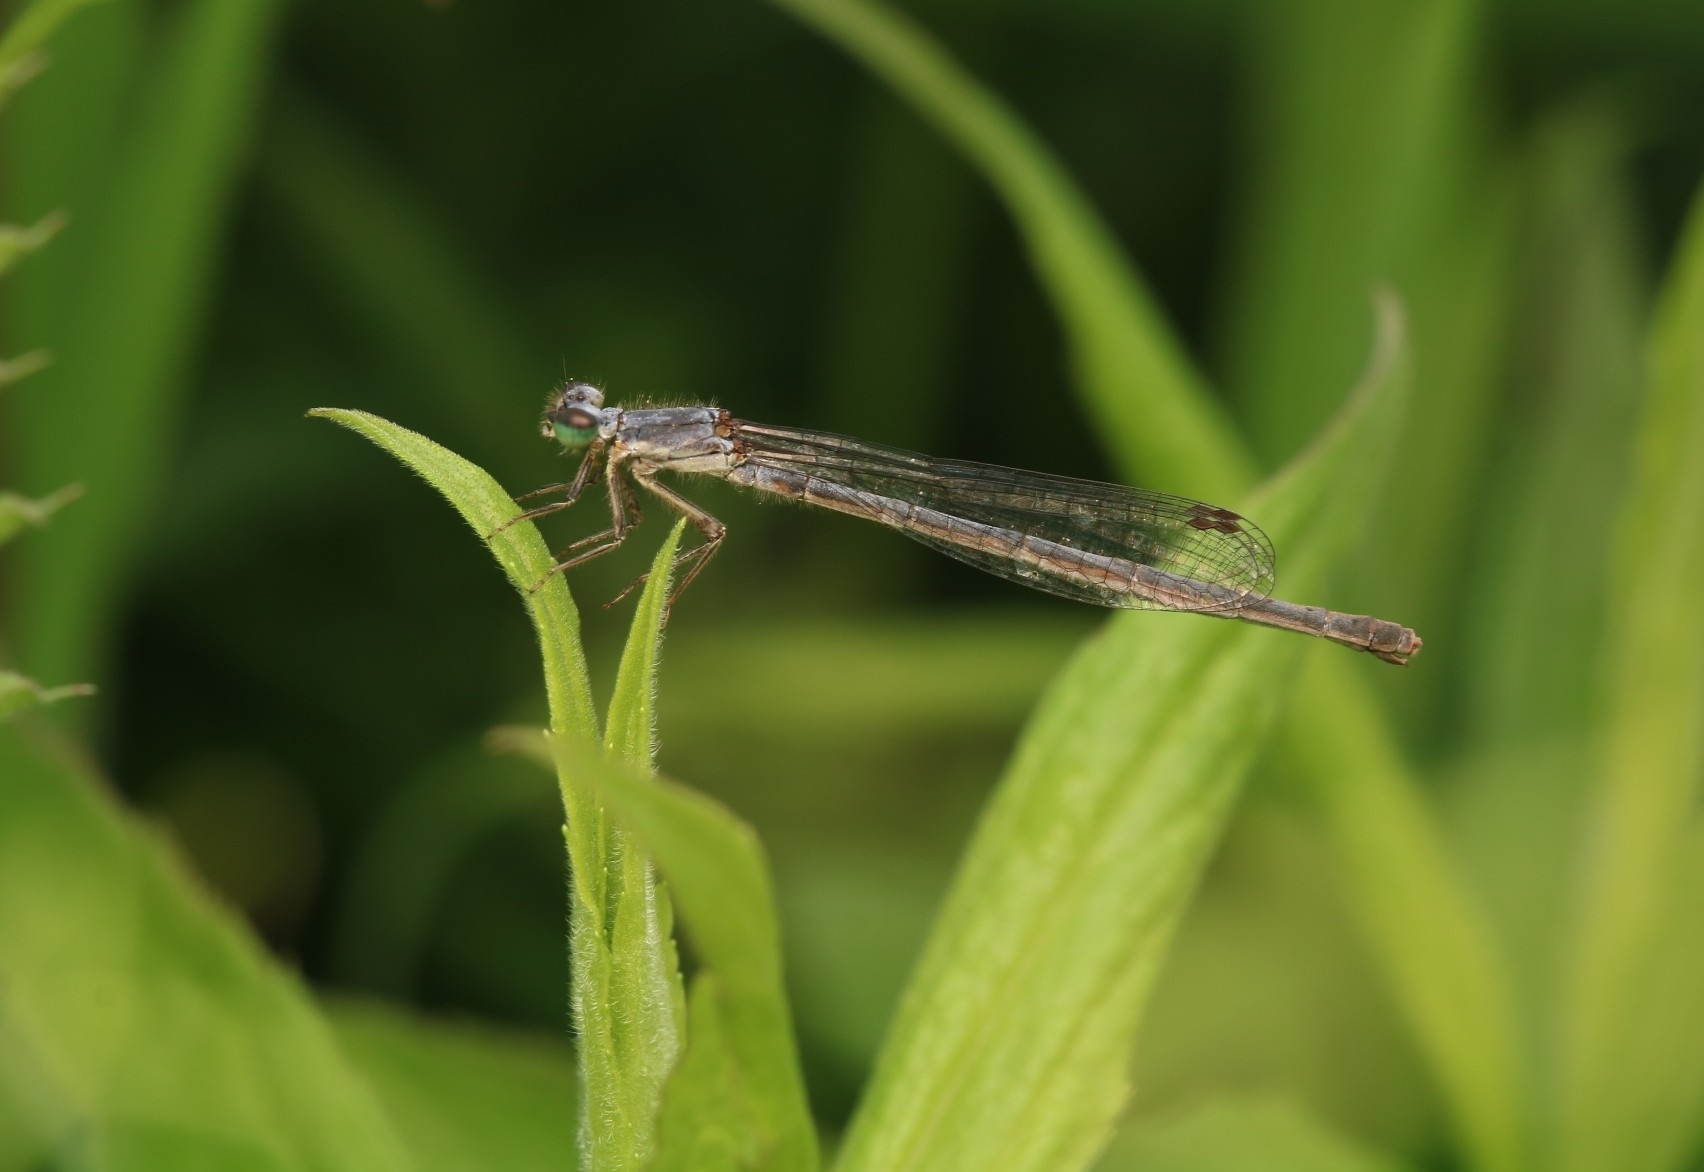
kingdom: Animalia
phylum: Arthropoda
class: Insecta
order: Odonata
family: Coenagrionidae
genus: Ischnura
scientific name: Ischnura posita
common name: Fragile forktail
